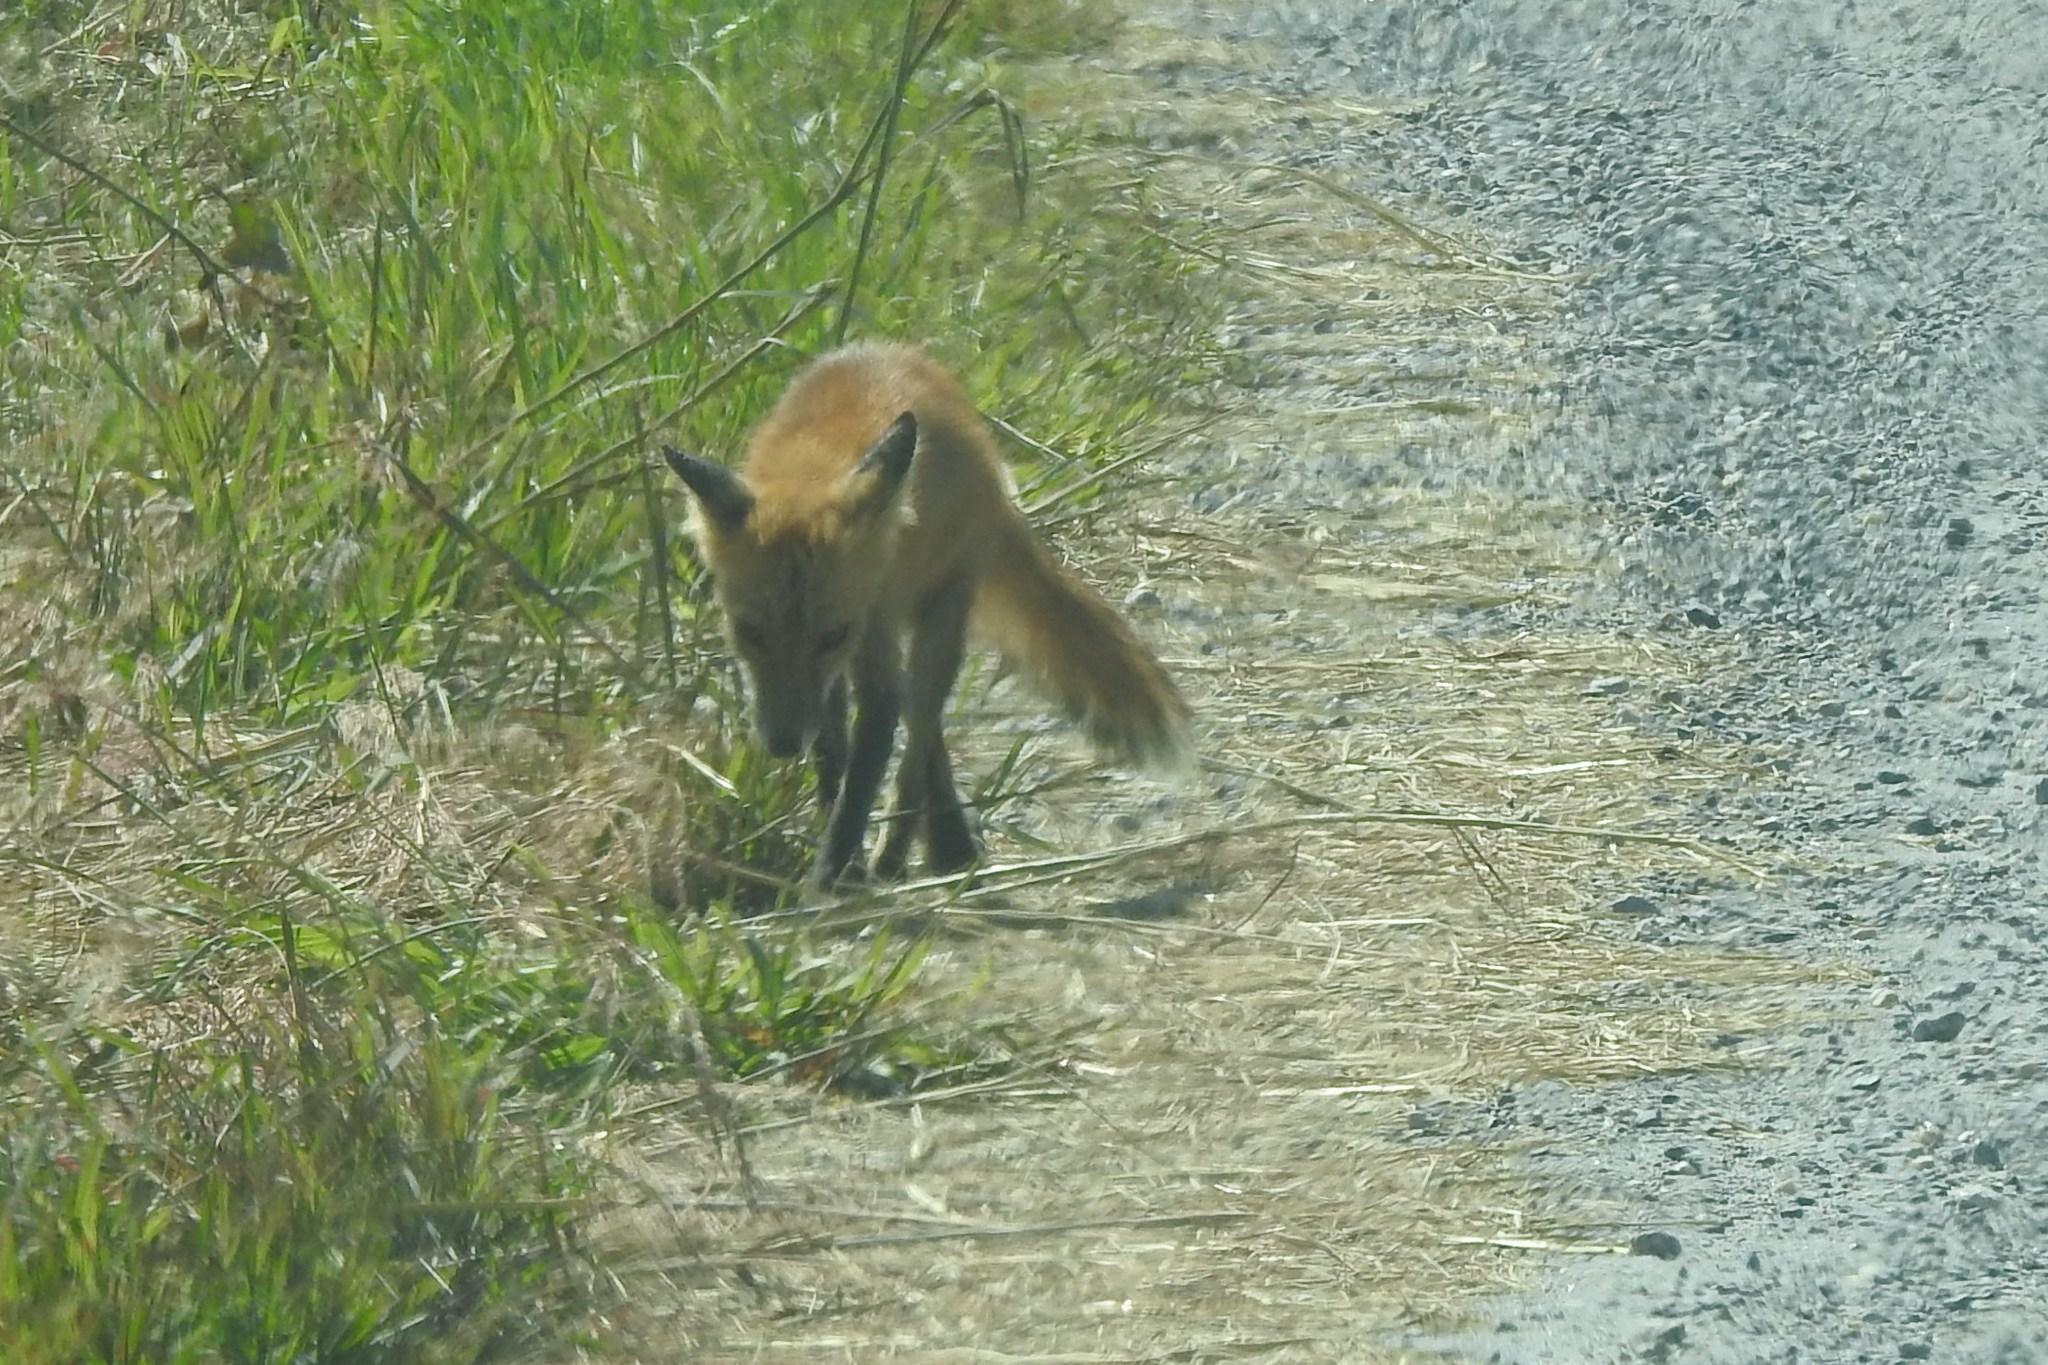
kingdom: Animalia
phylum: Chordata
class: Mammalia
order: Carnivora
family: Canidae
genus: Vulpes
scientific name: Vulpes vulpes
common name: Red fox
